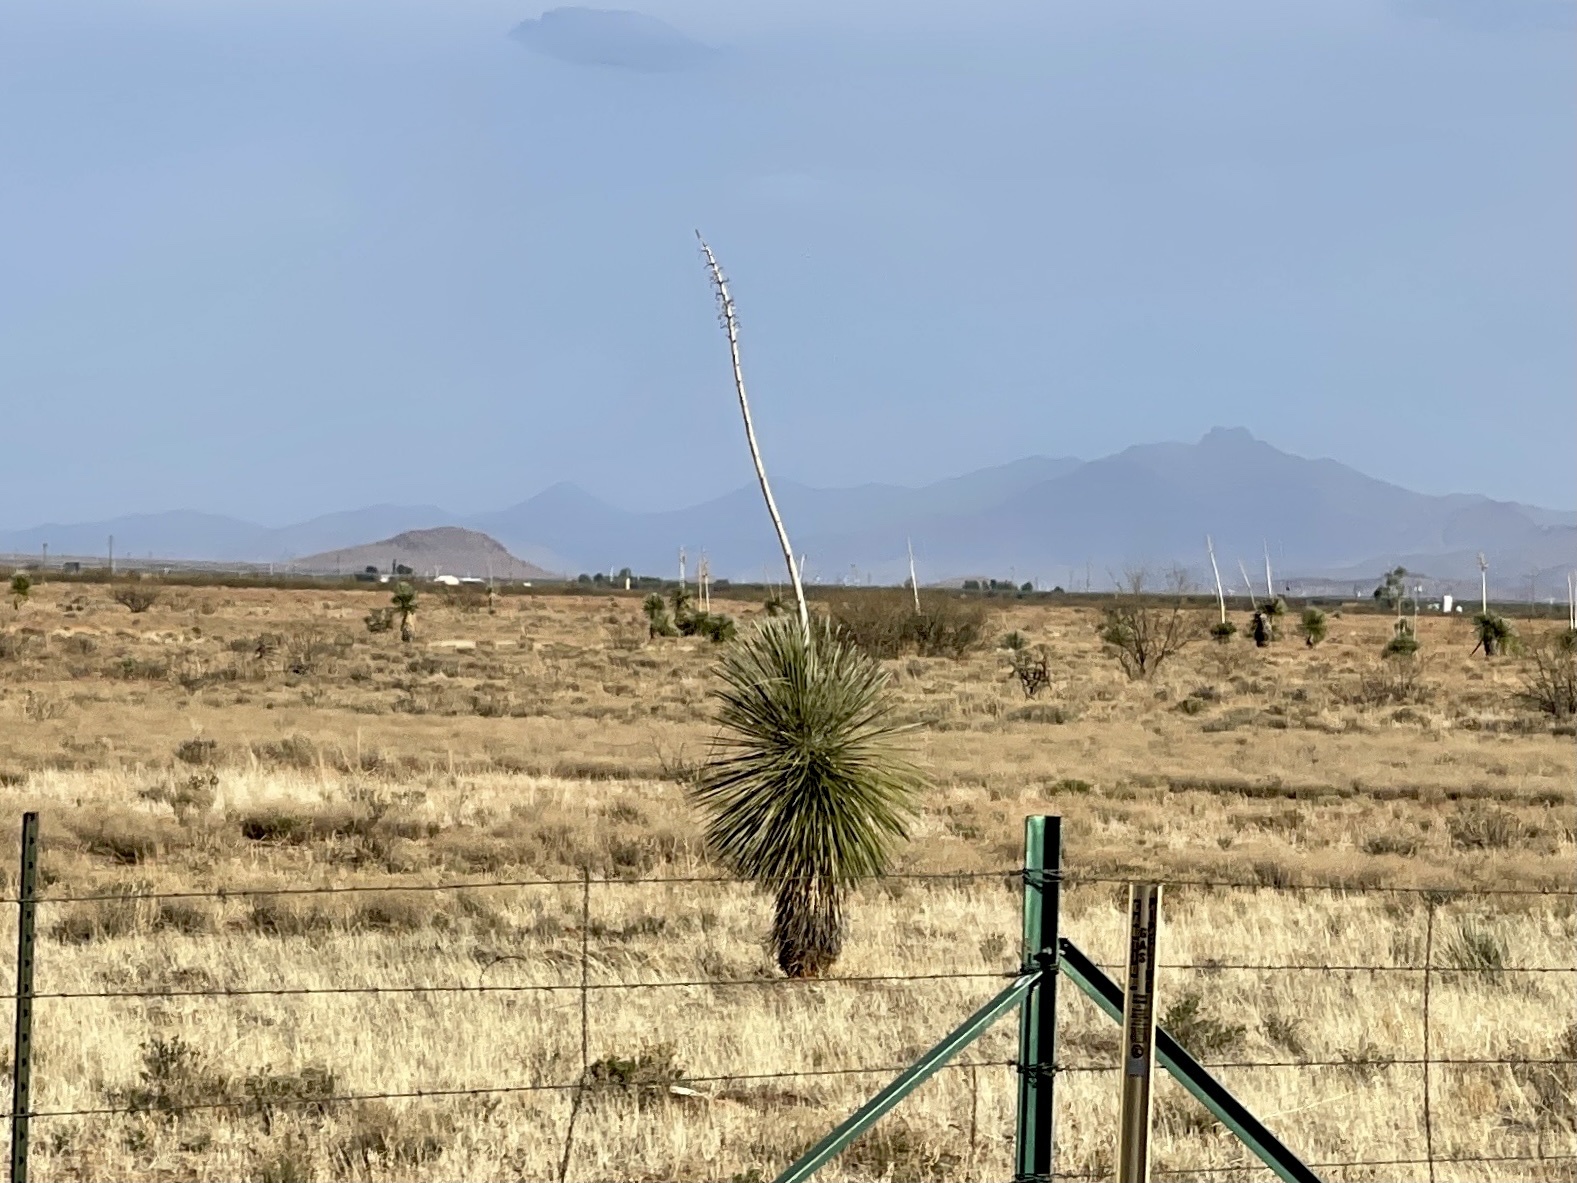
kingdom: Plantae
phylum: Tracheophyta
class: Liliopsida
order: Asparagales
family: Asparagaceae
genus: Yucca
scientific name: Yucca elata
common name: Palmella
